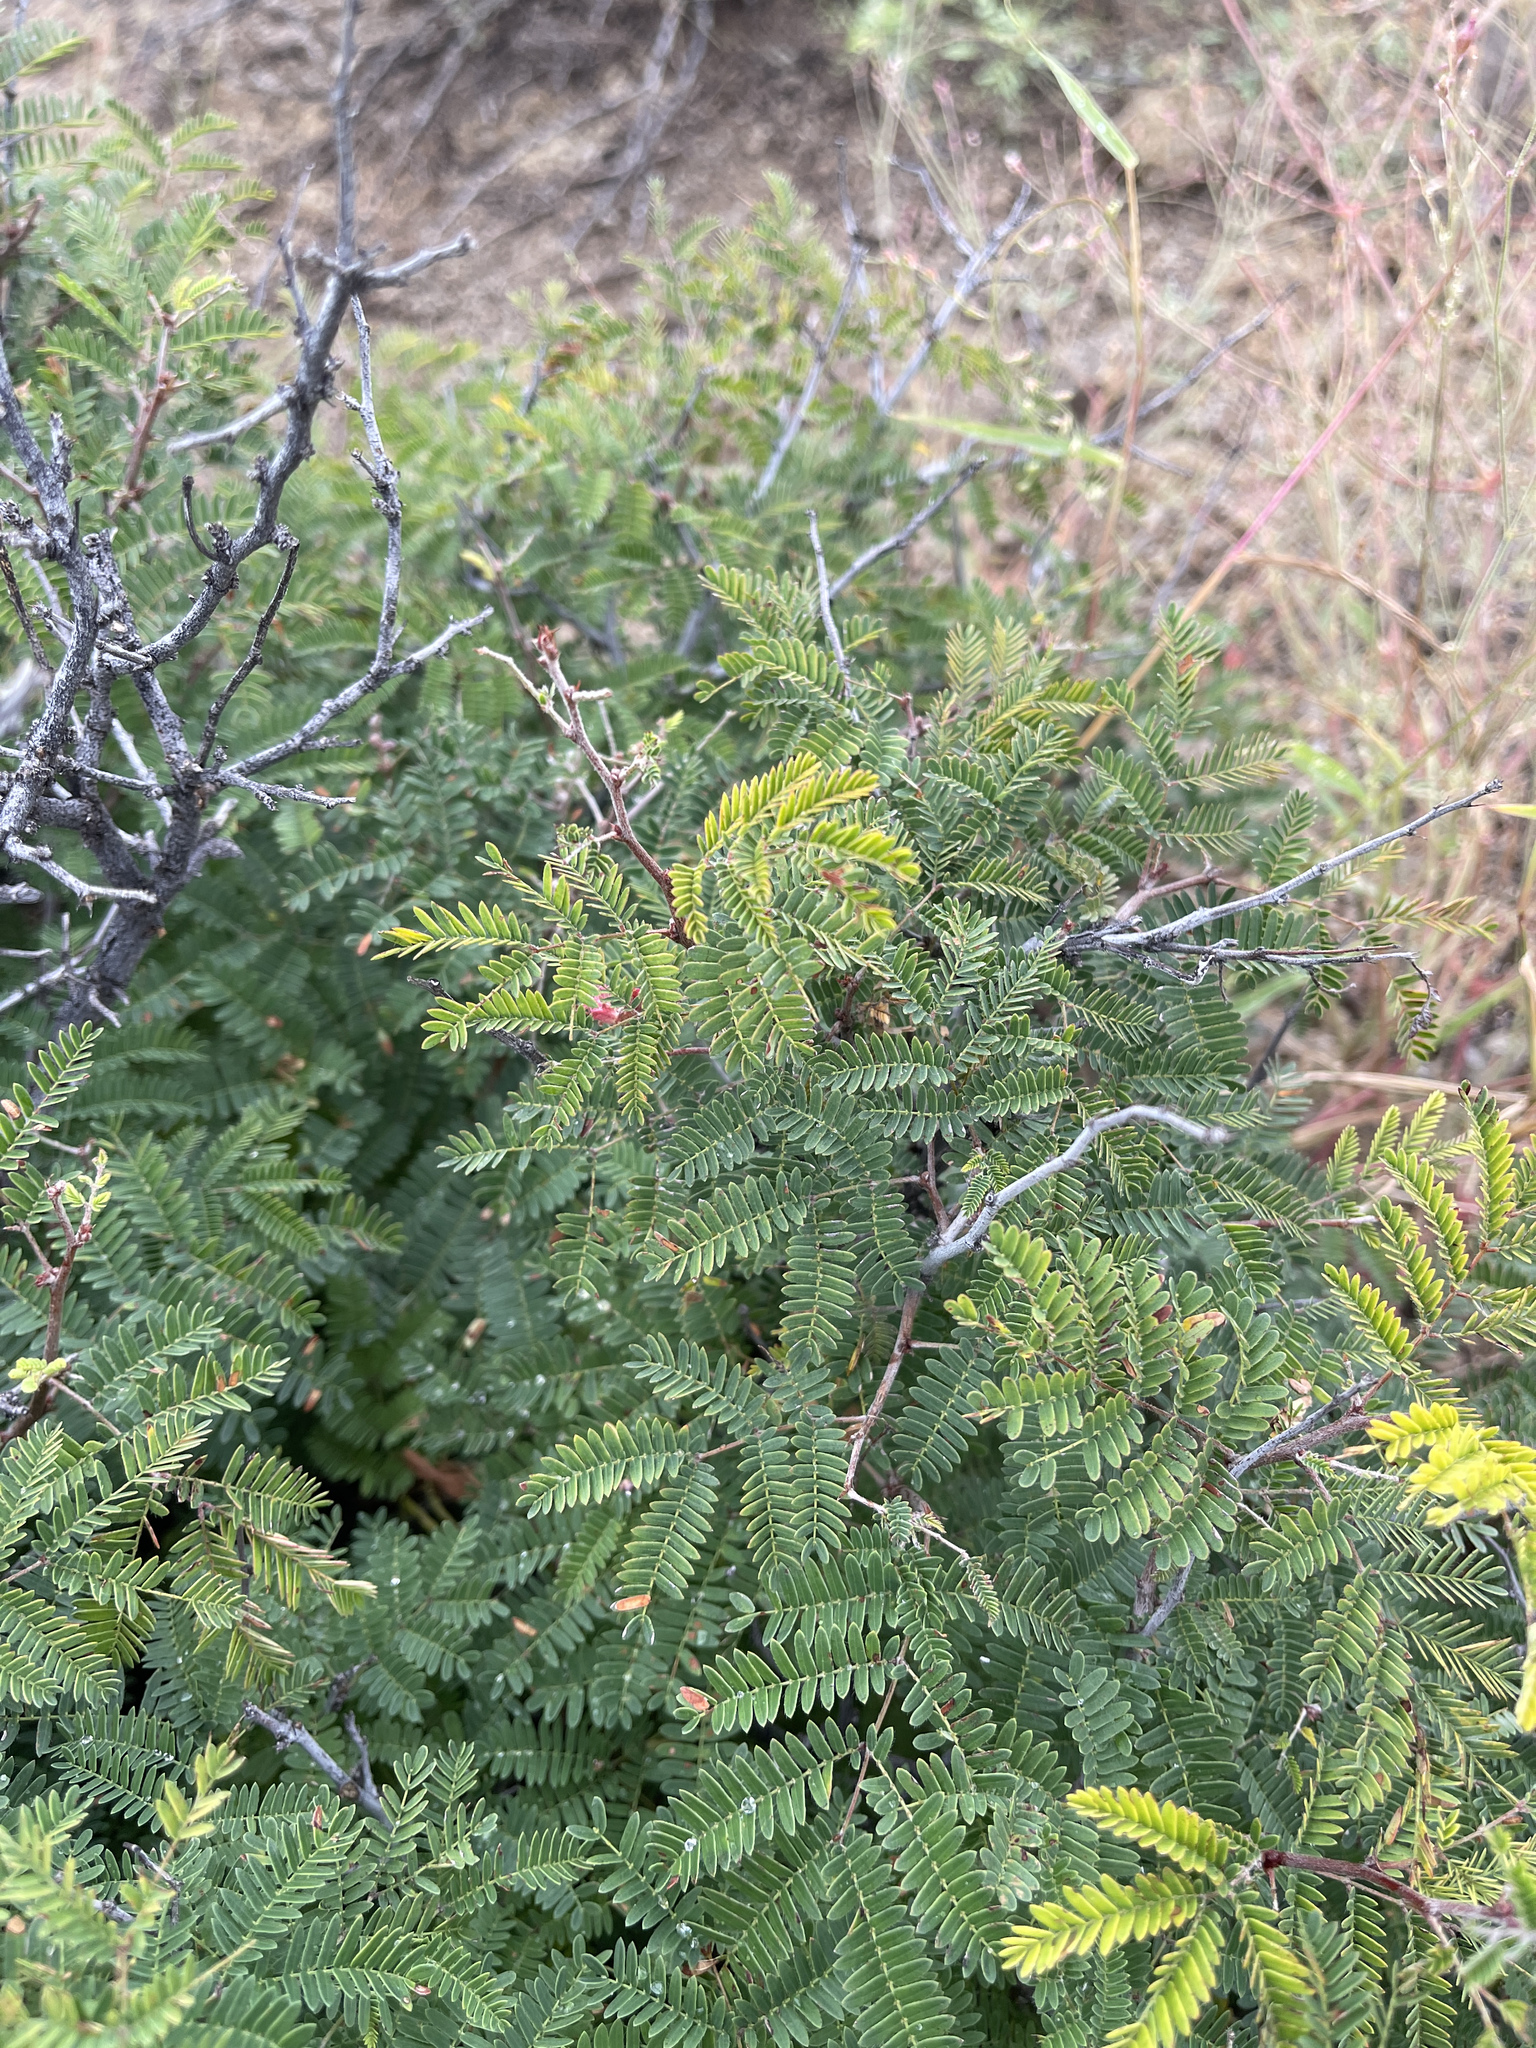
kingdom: Plantae
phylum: Tracheophyta
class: Magnoliopsida
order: Fabales
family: Fabaceae
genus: Calliandra
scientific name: Calliandra eriophylla
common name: Fairy-duster
